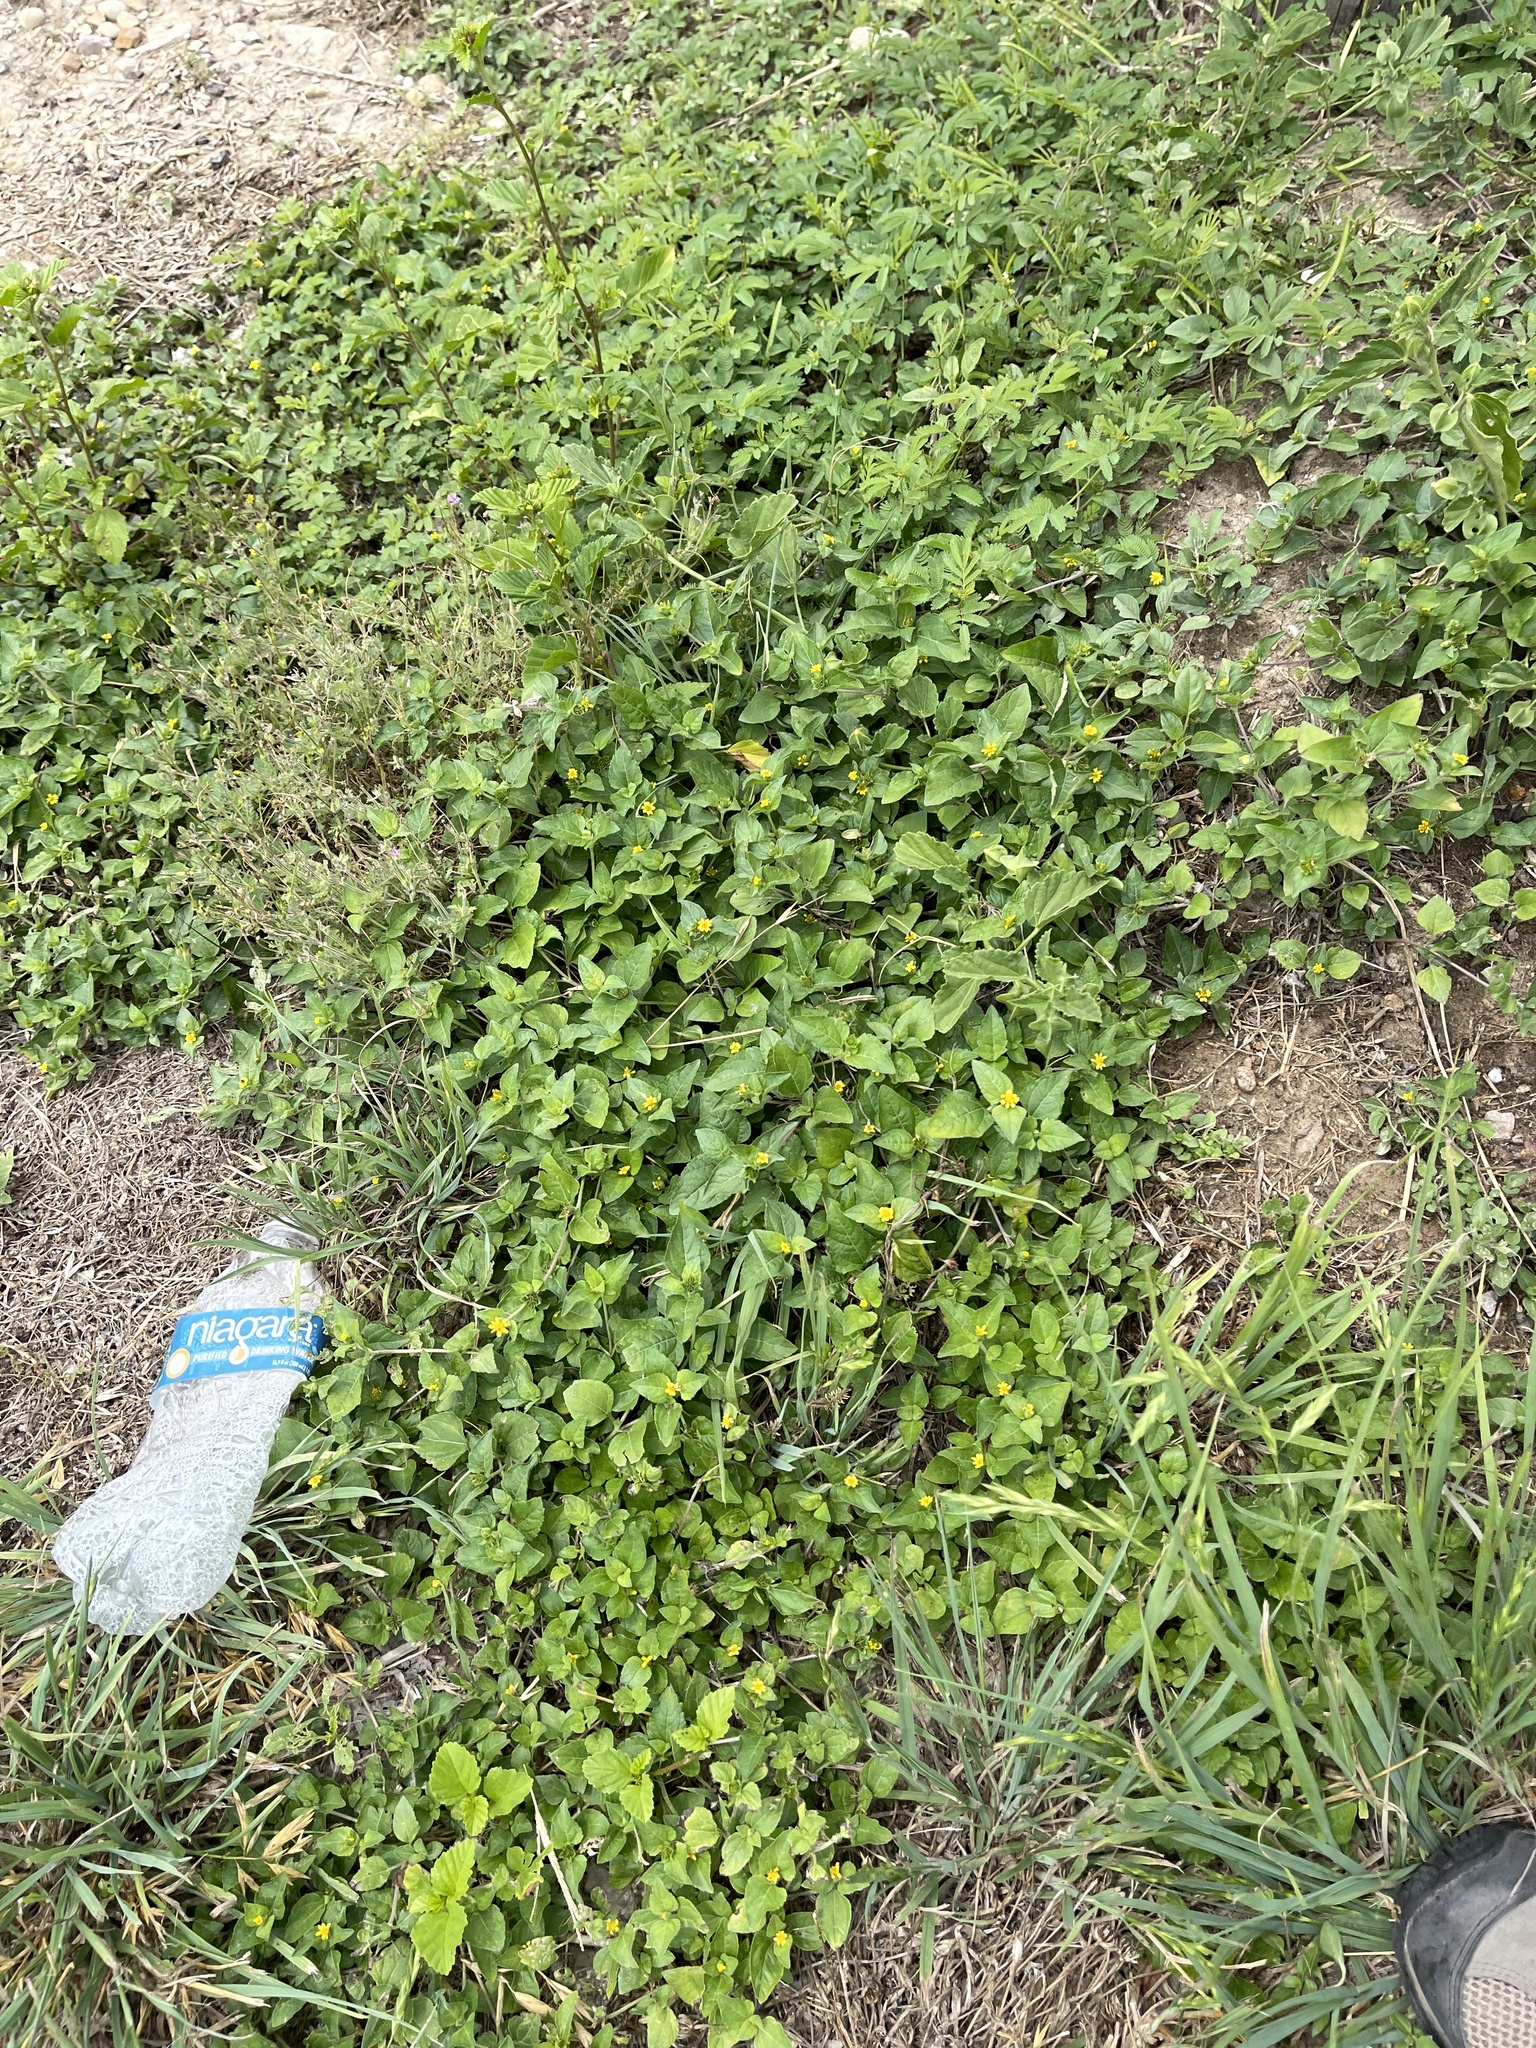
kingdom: Plantae
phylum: Tracheophyta
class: Magnoliopsida
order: Asterales
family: Asteraceae
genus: Calyptocarpus
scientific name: Calyptocarpus vialis
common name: Straggler daisy
